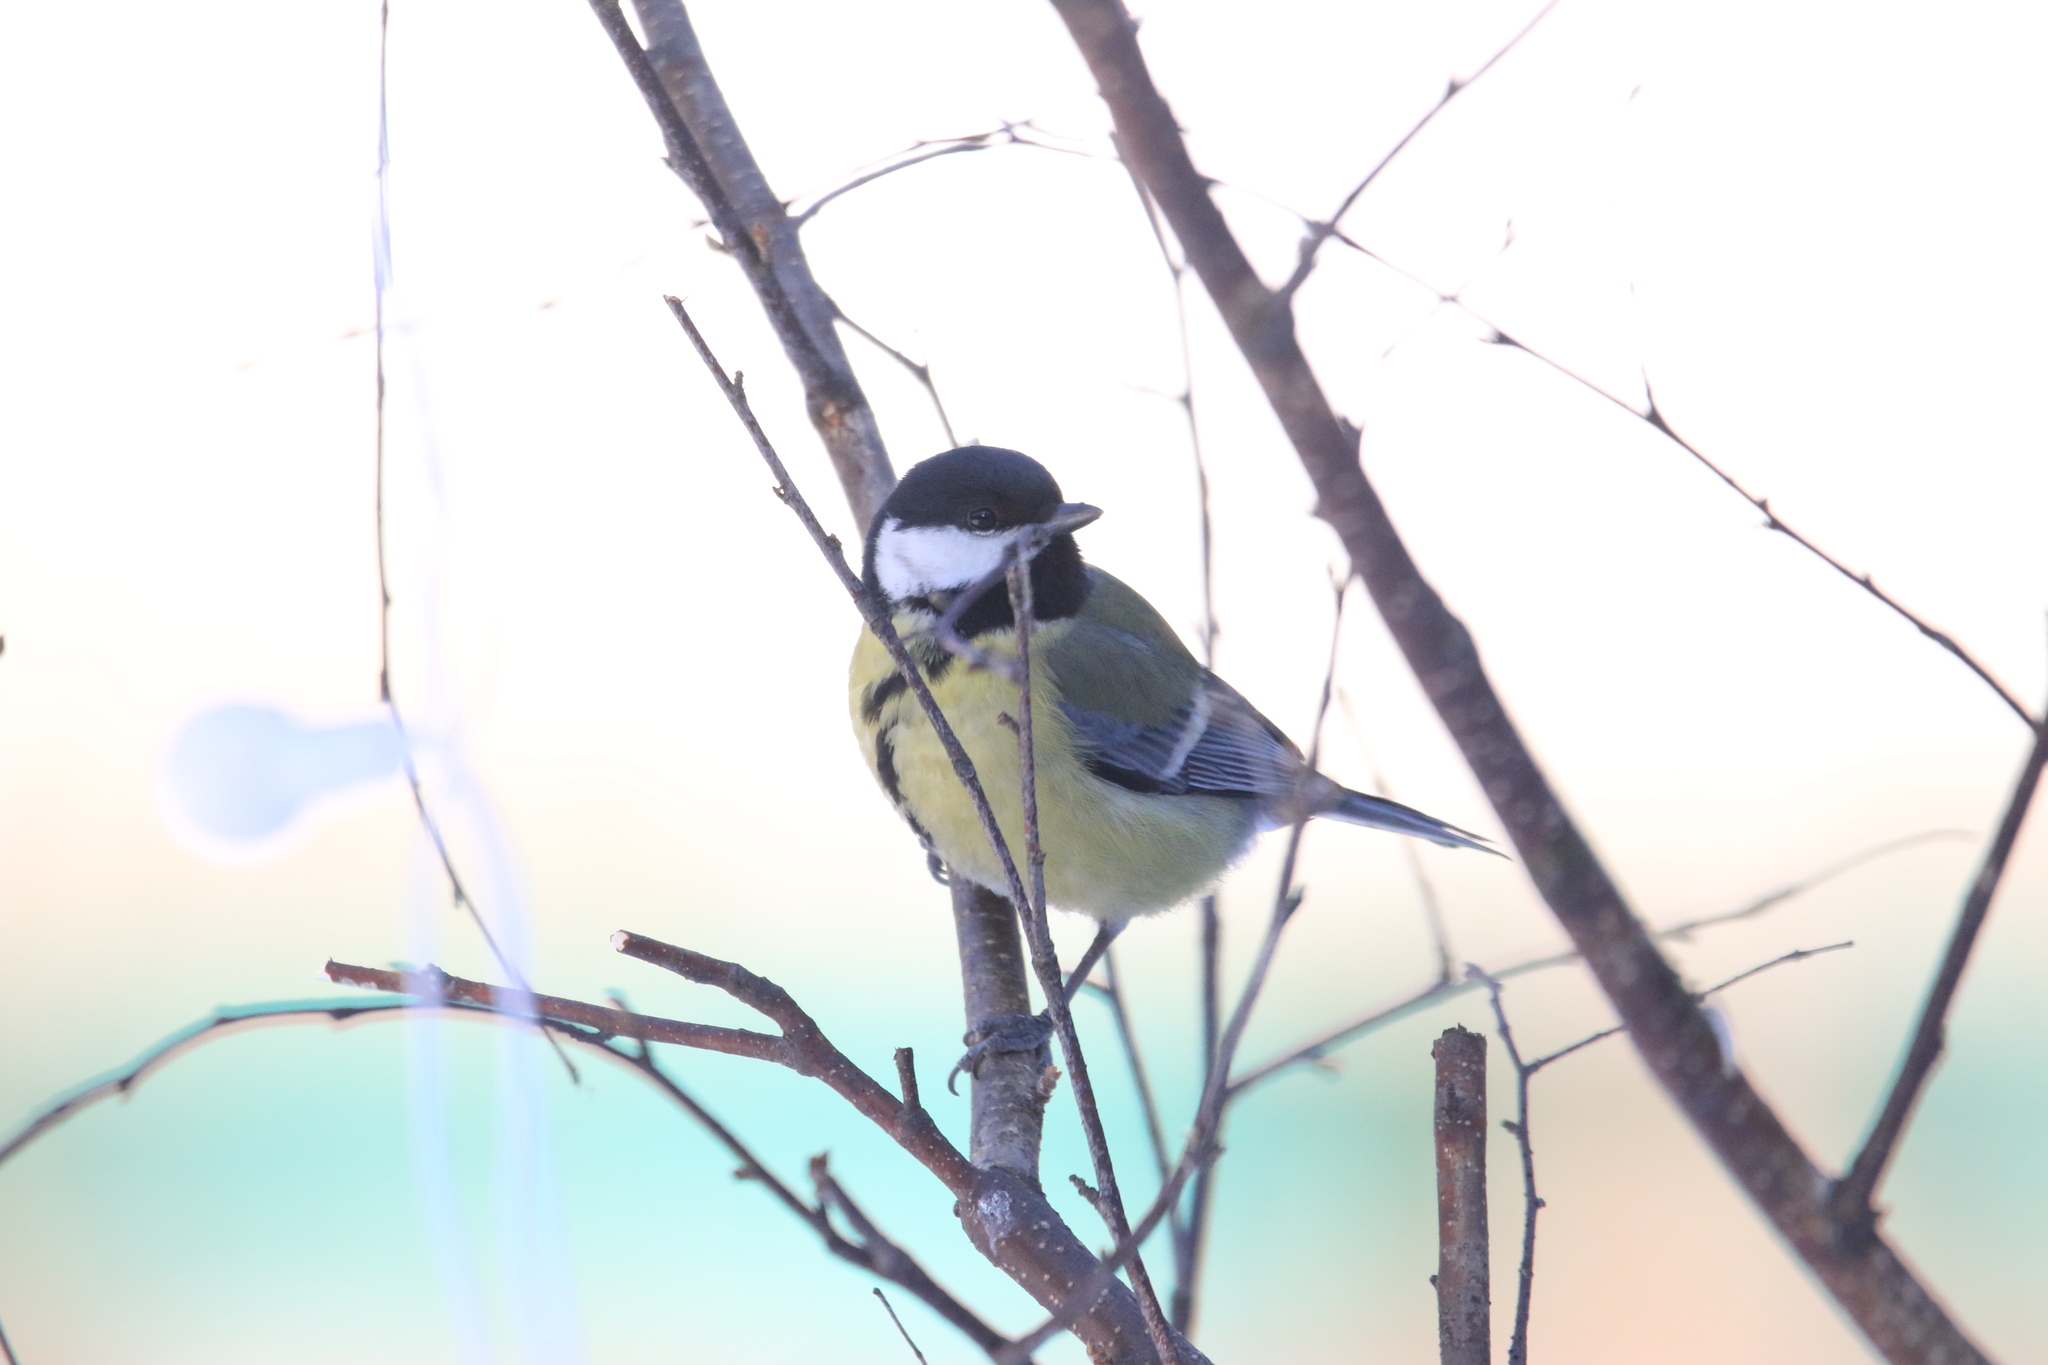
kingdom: Animalia
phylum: Chordata
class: Aves
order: Passeriformes
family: Paridae
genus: Parus
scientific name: Parus major
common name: Great tit
